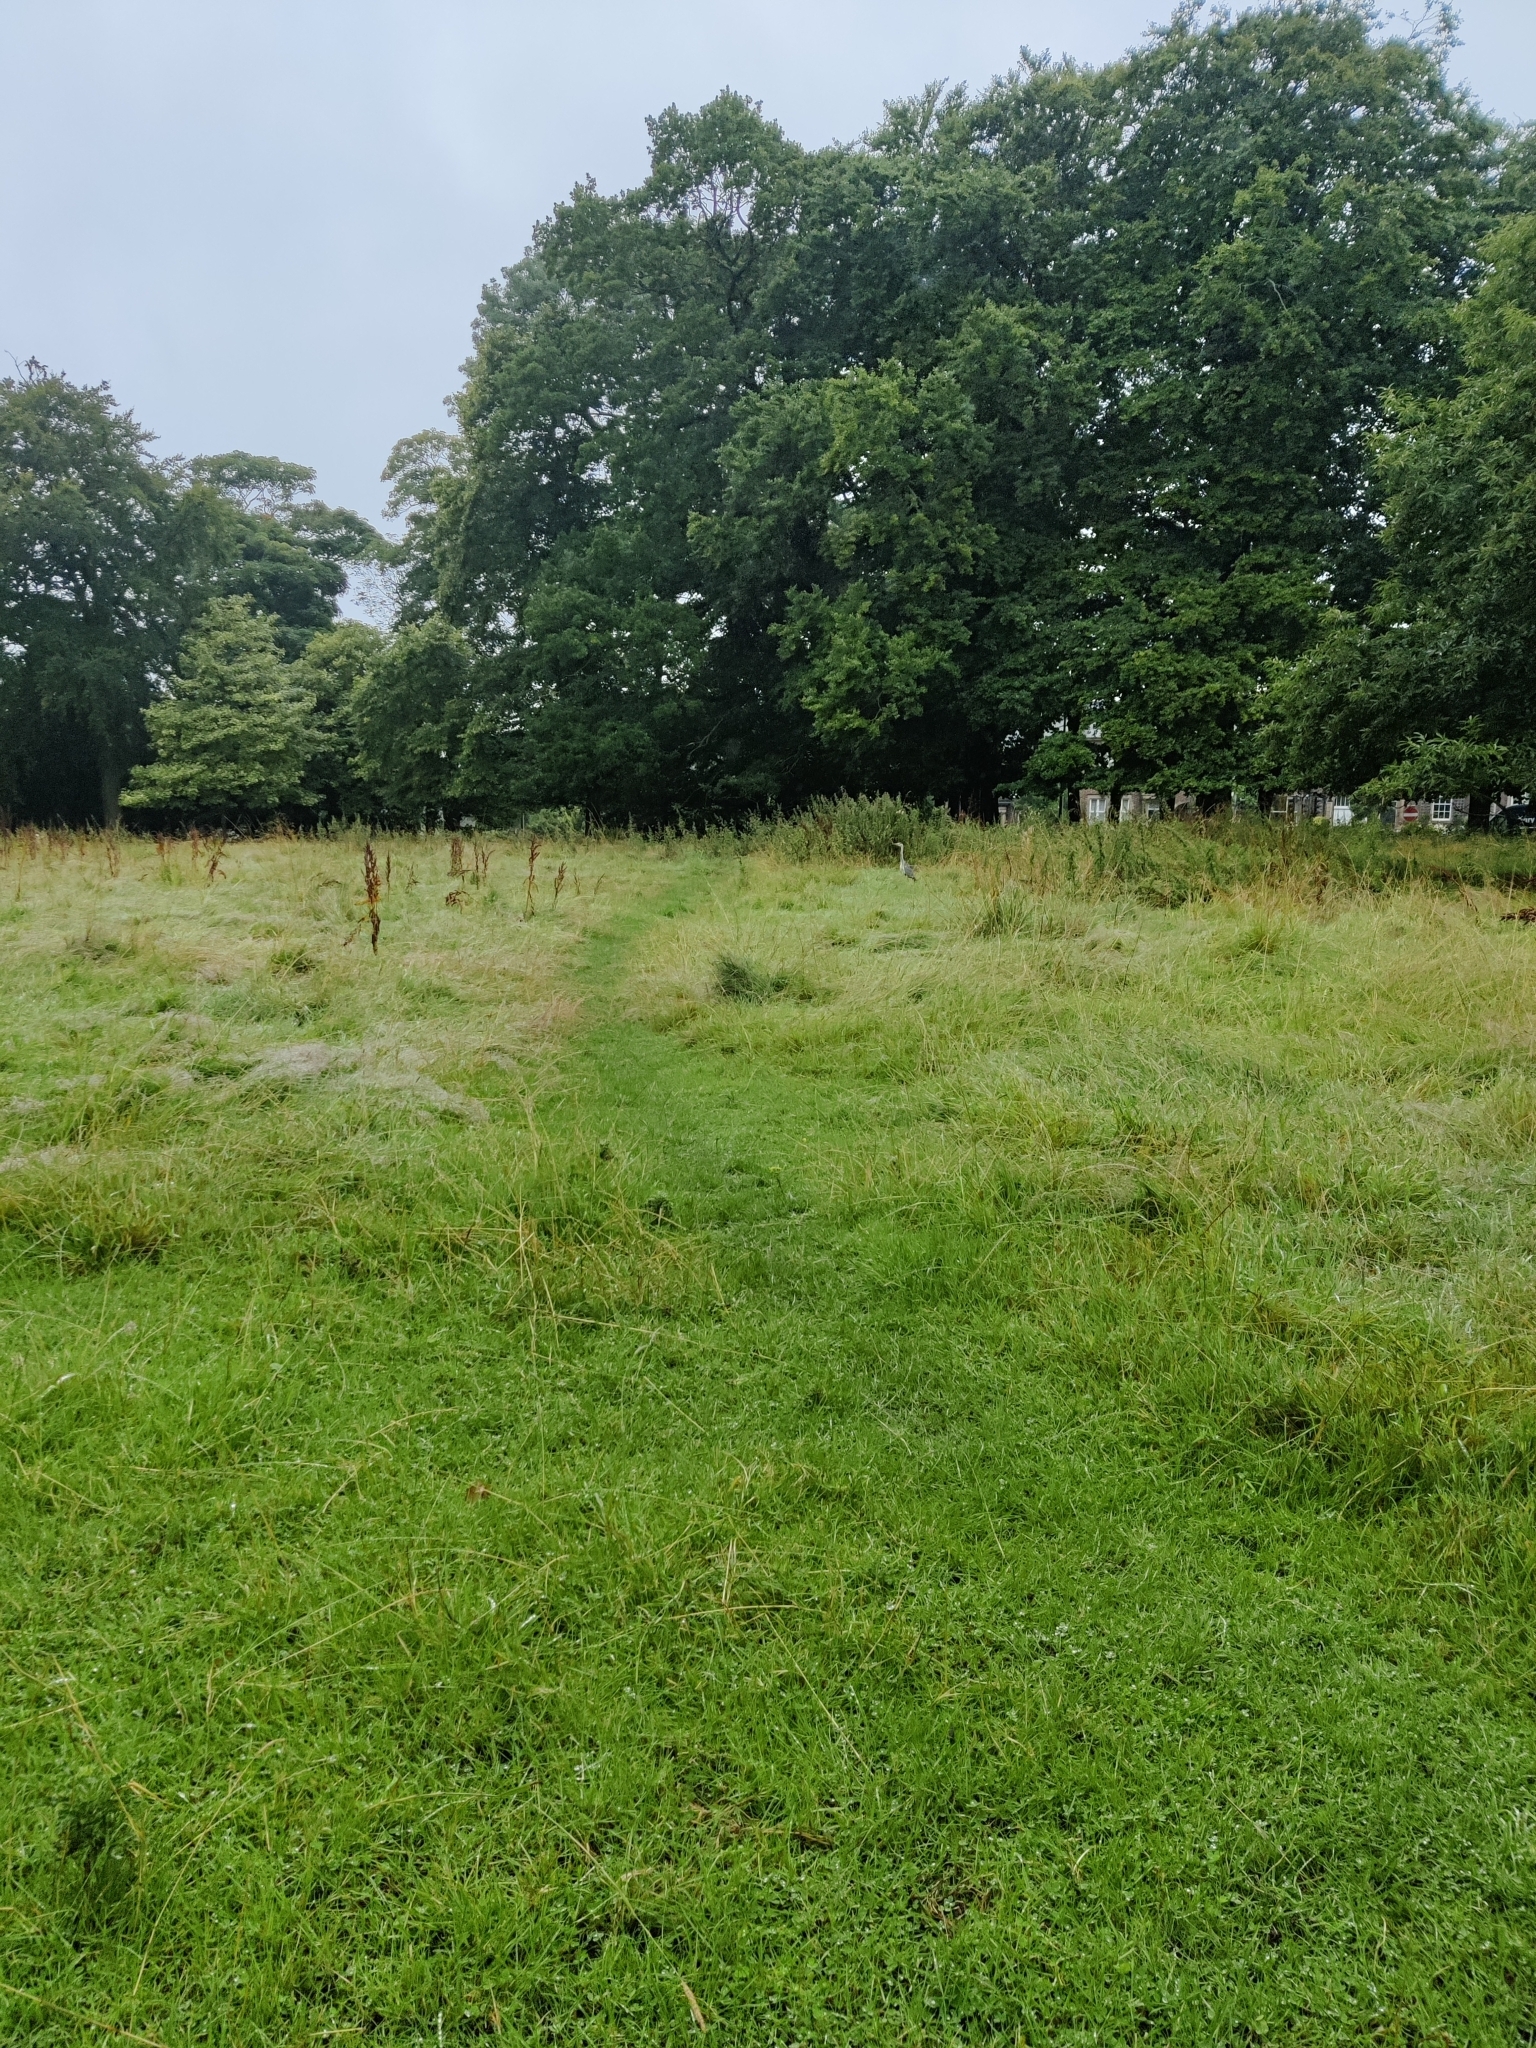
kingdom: Animalia
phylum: Chordata
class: Aves
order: Pelecaniformes
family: Ardeidae
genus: Ardea
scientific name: Ardea cinerea
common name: Grey heron
